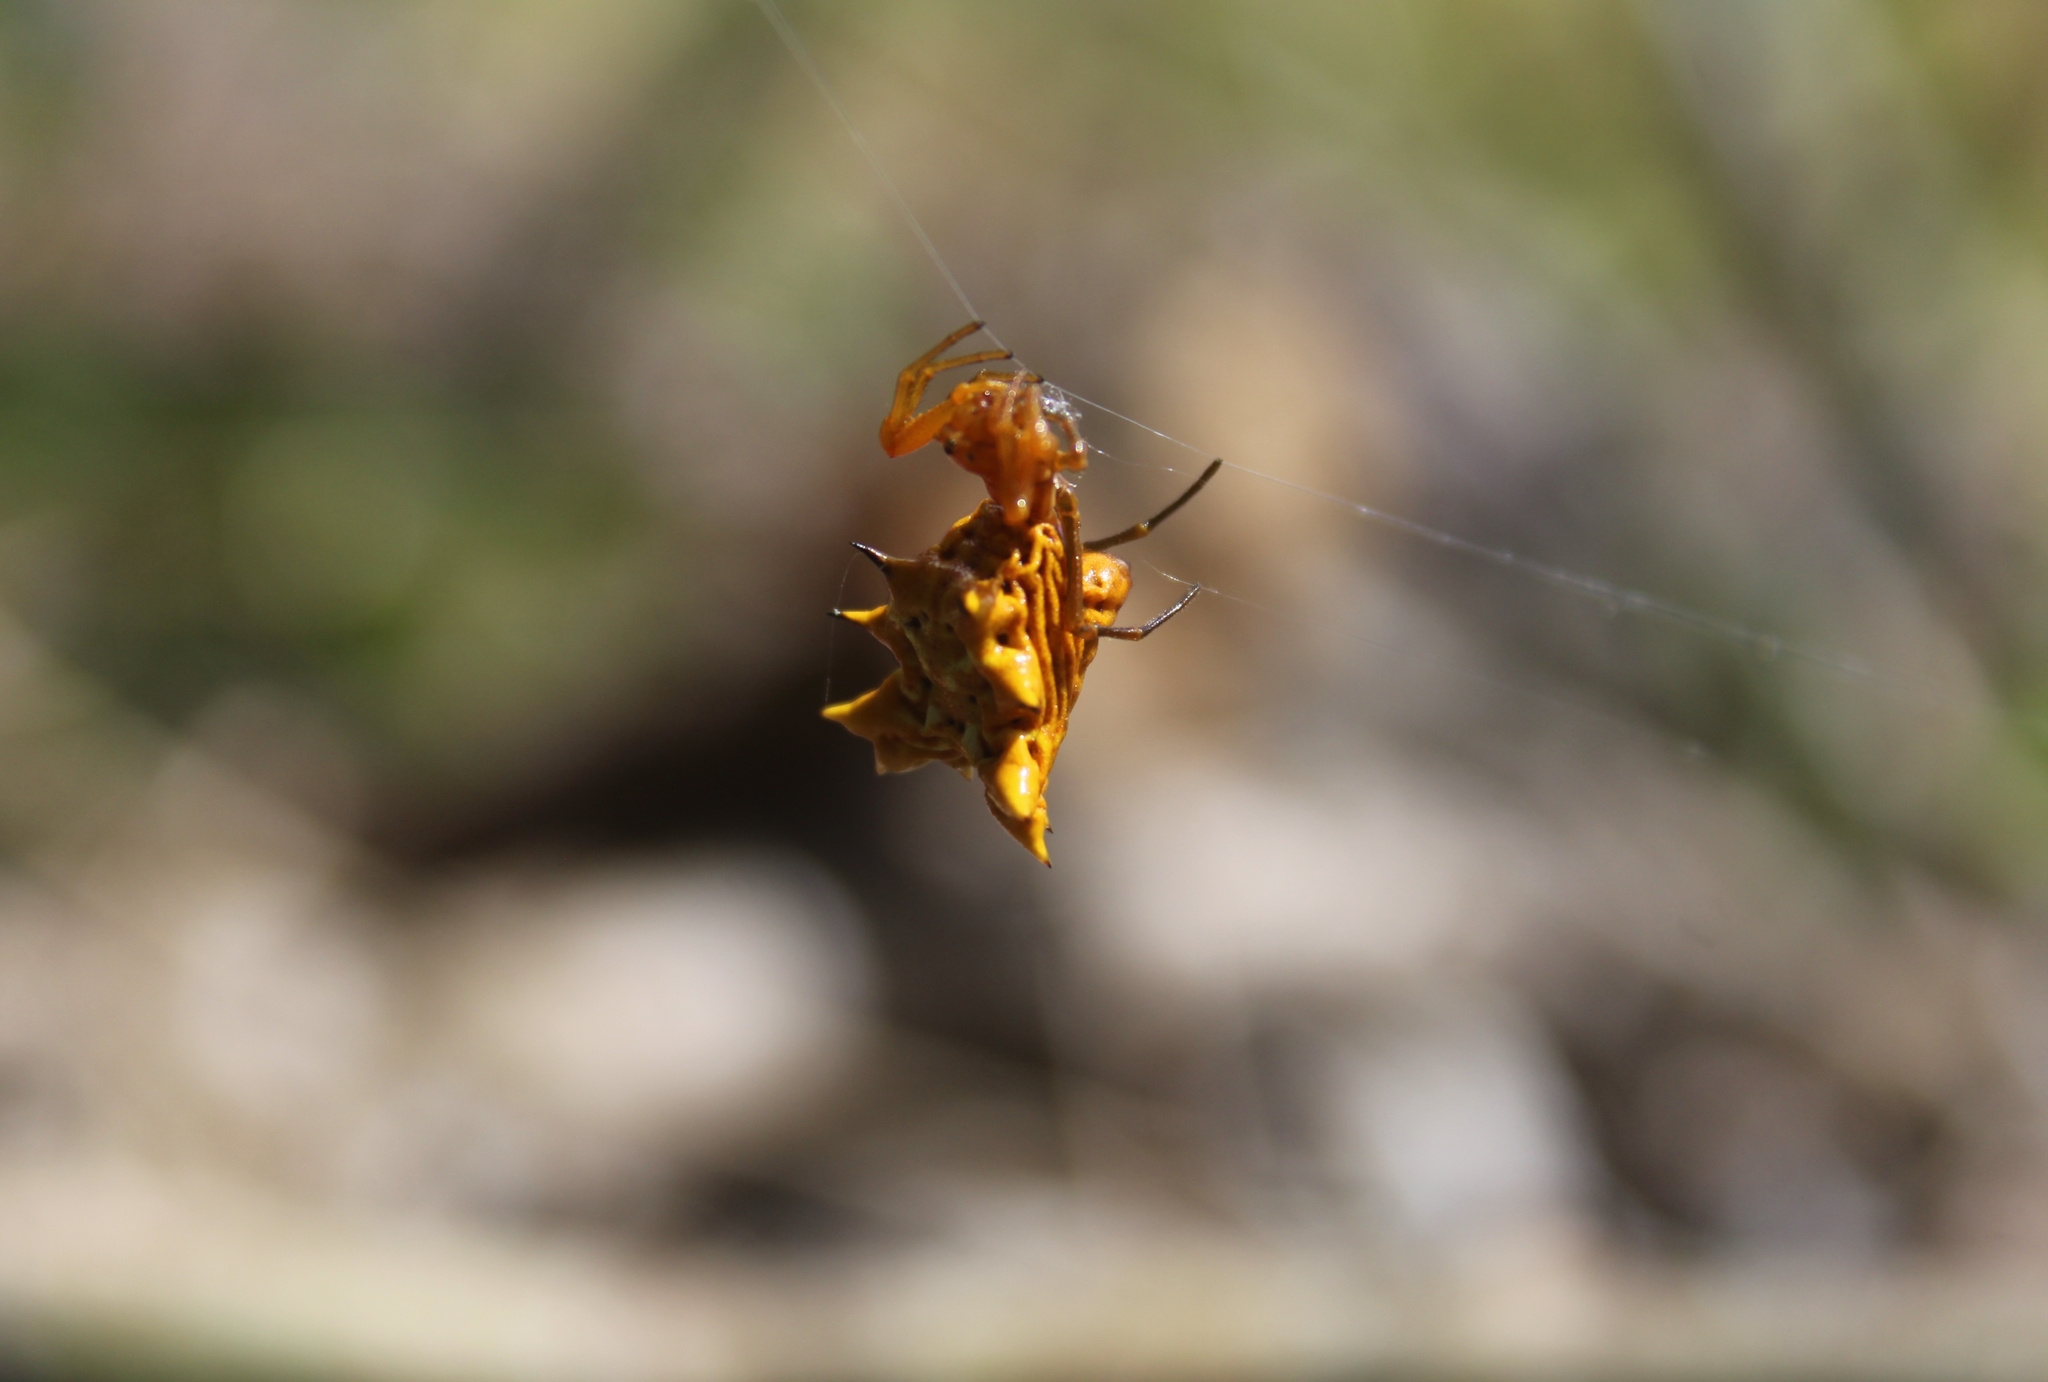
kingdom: Animalia
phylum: Arthropoda
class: Arachnida
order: Araneae
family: Araneidae
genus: Micrathena
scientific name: Micrathena gracilis
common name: Orb weavers
